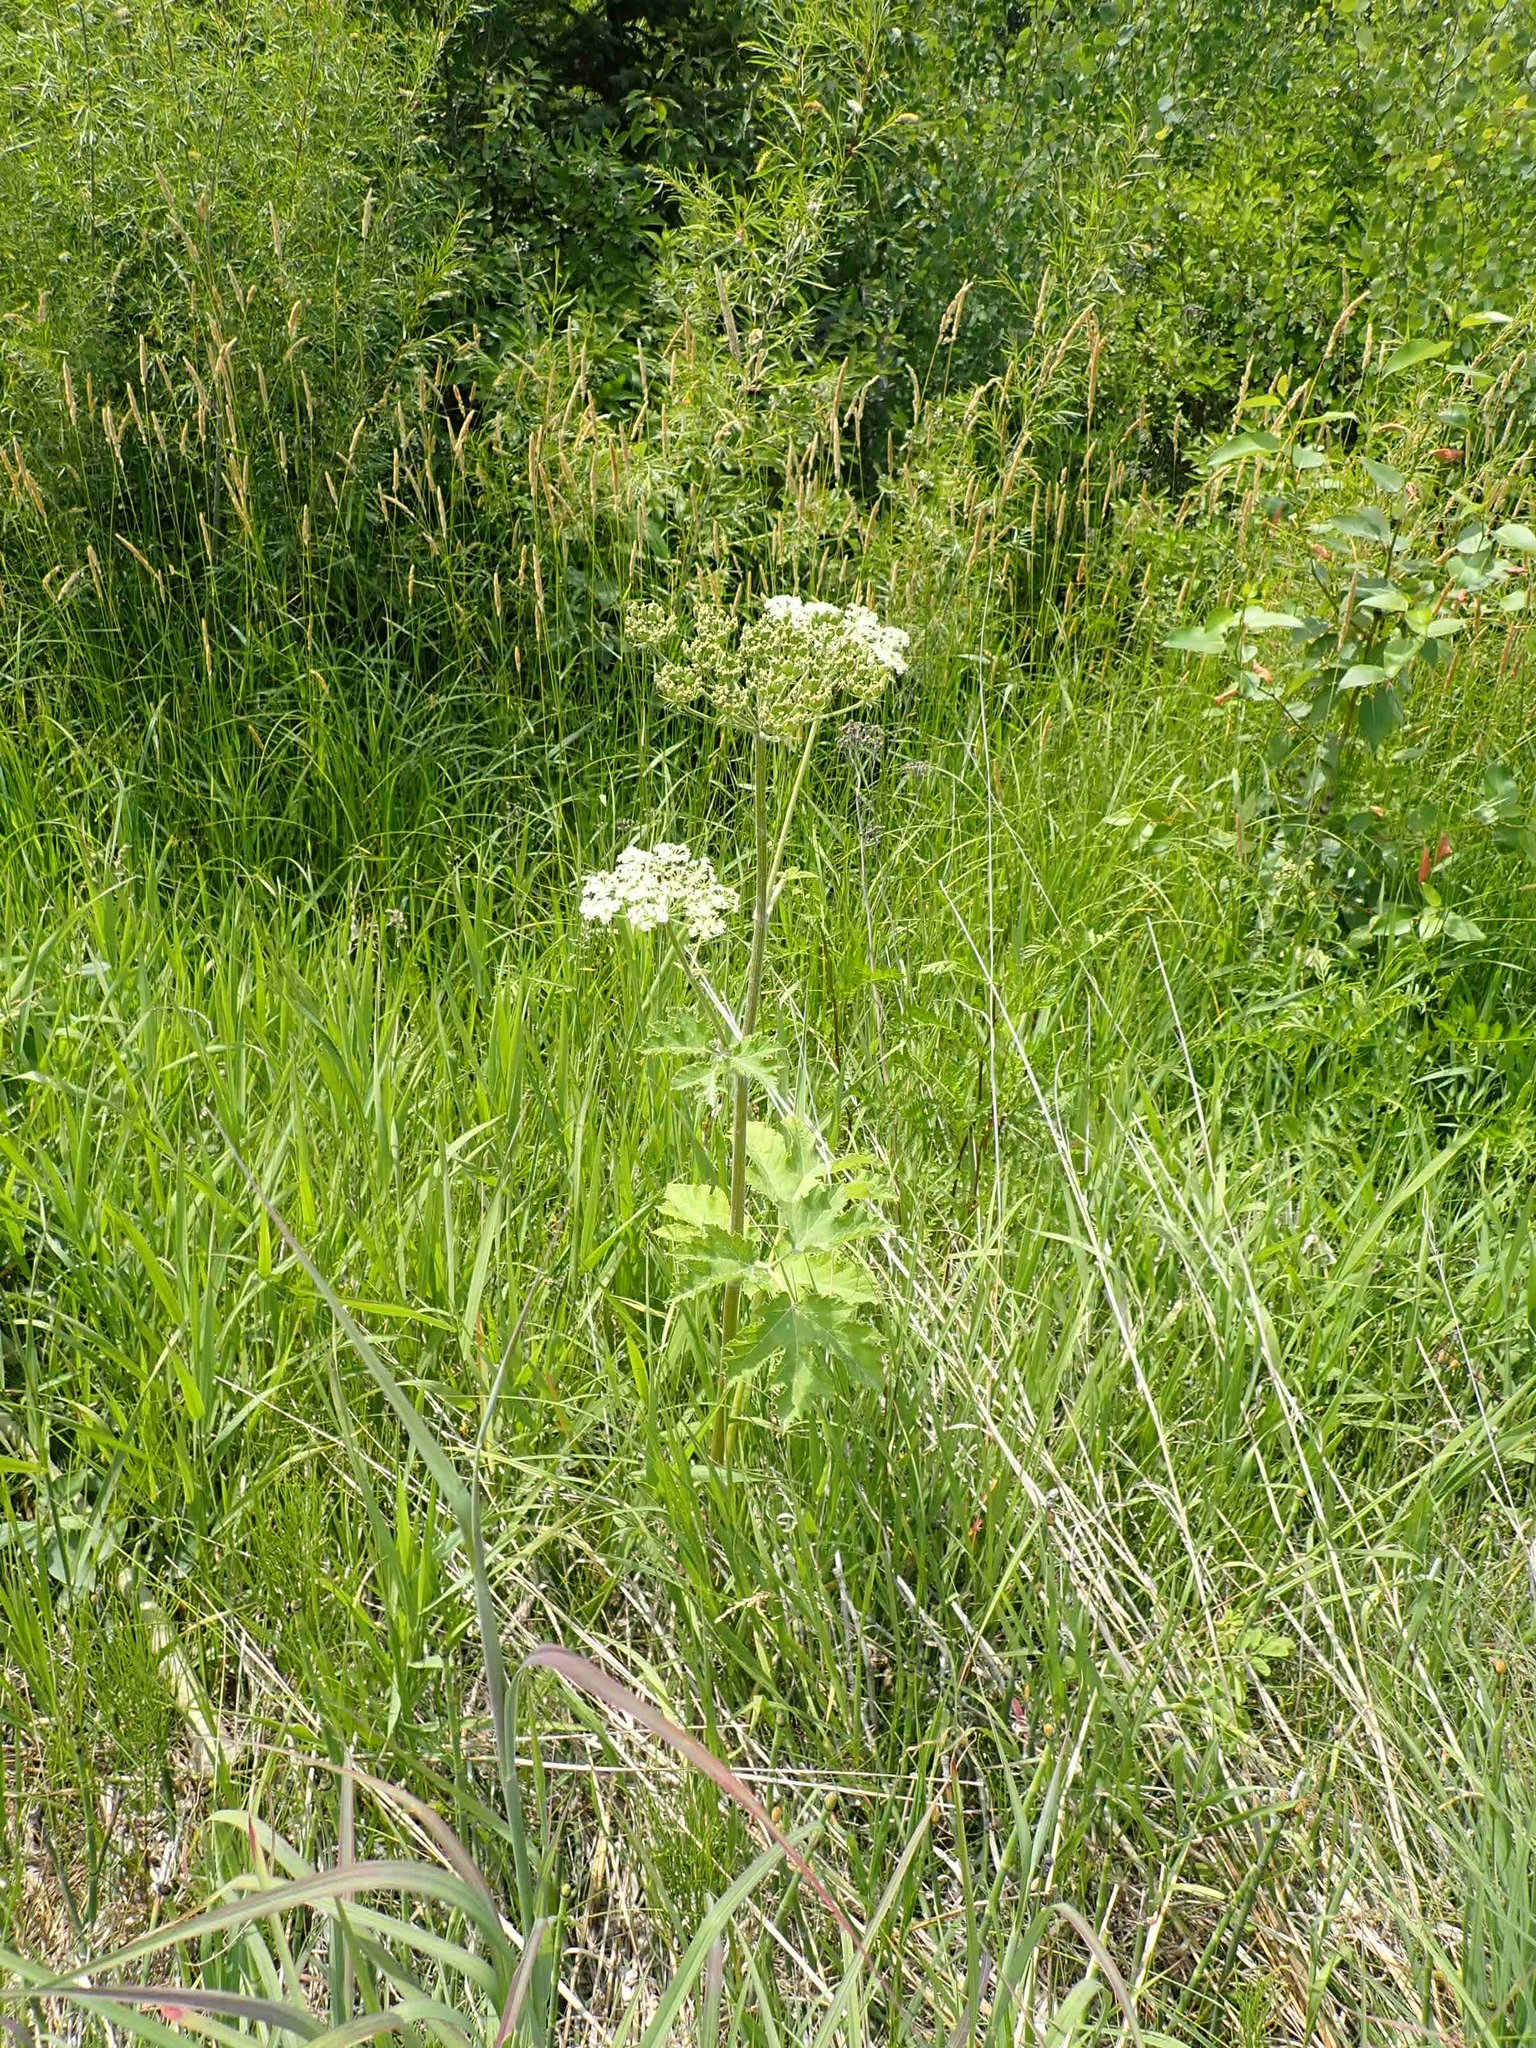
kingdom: Plantae
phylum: Tracheophyta
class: Magnoliopsida
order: Apiales
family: Apiaceae
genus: Heracleum
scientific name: Heracleum maximum
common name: American cow parsnip
